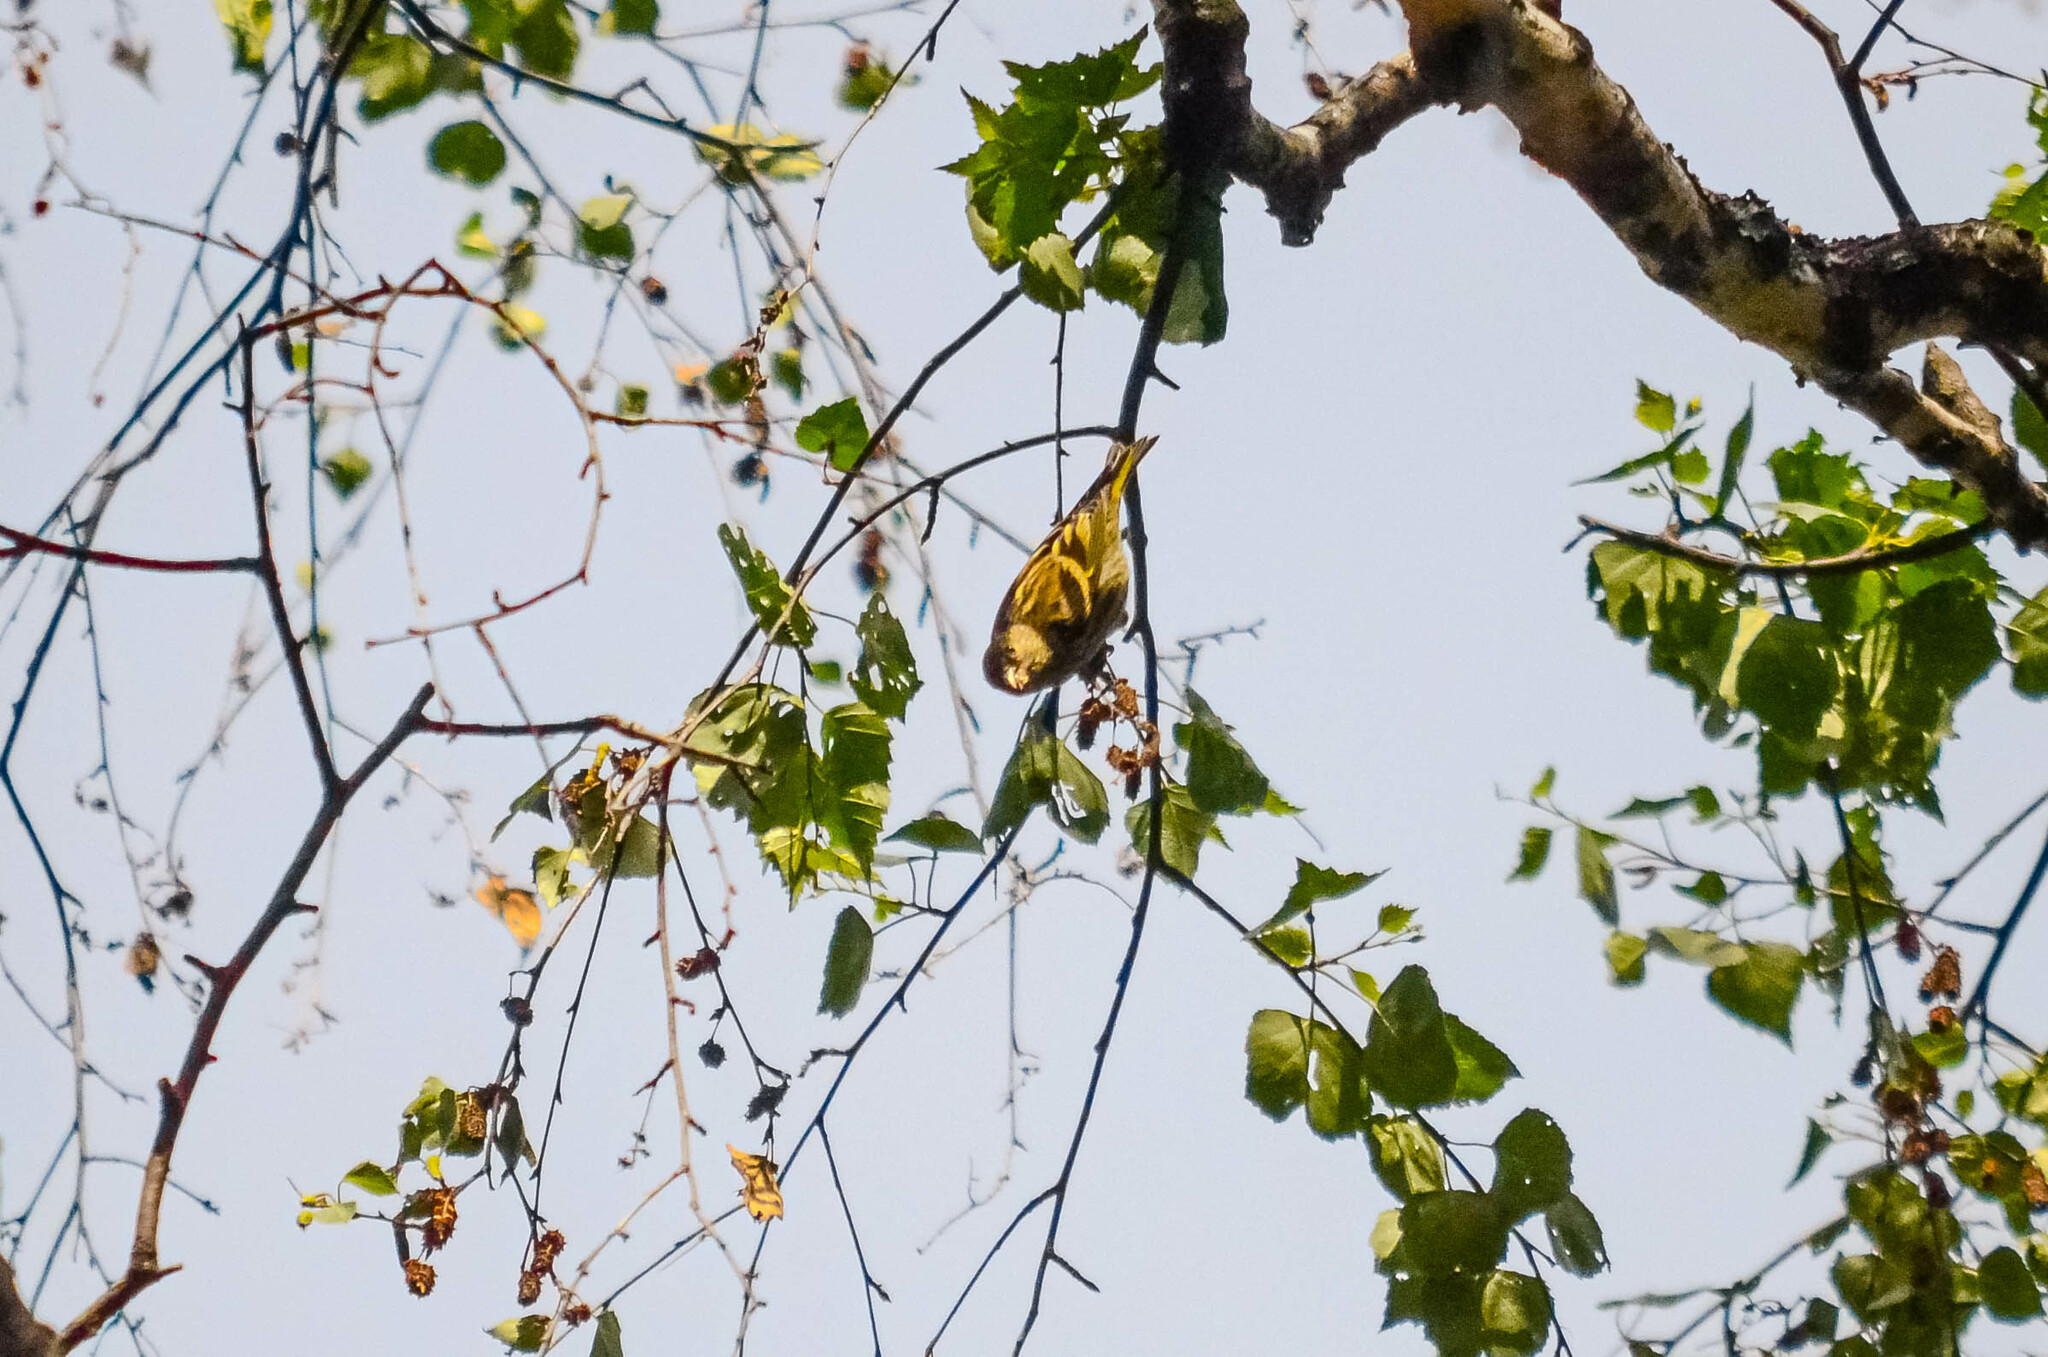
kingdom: Animalia
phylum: Chordata
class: Aves
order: Passeriformes
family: Fringillidae
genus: Spinus
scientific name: Spinus spinus
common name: Eurasian siskin
